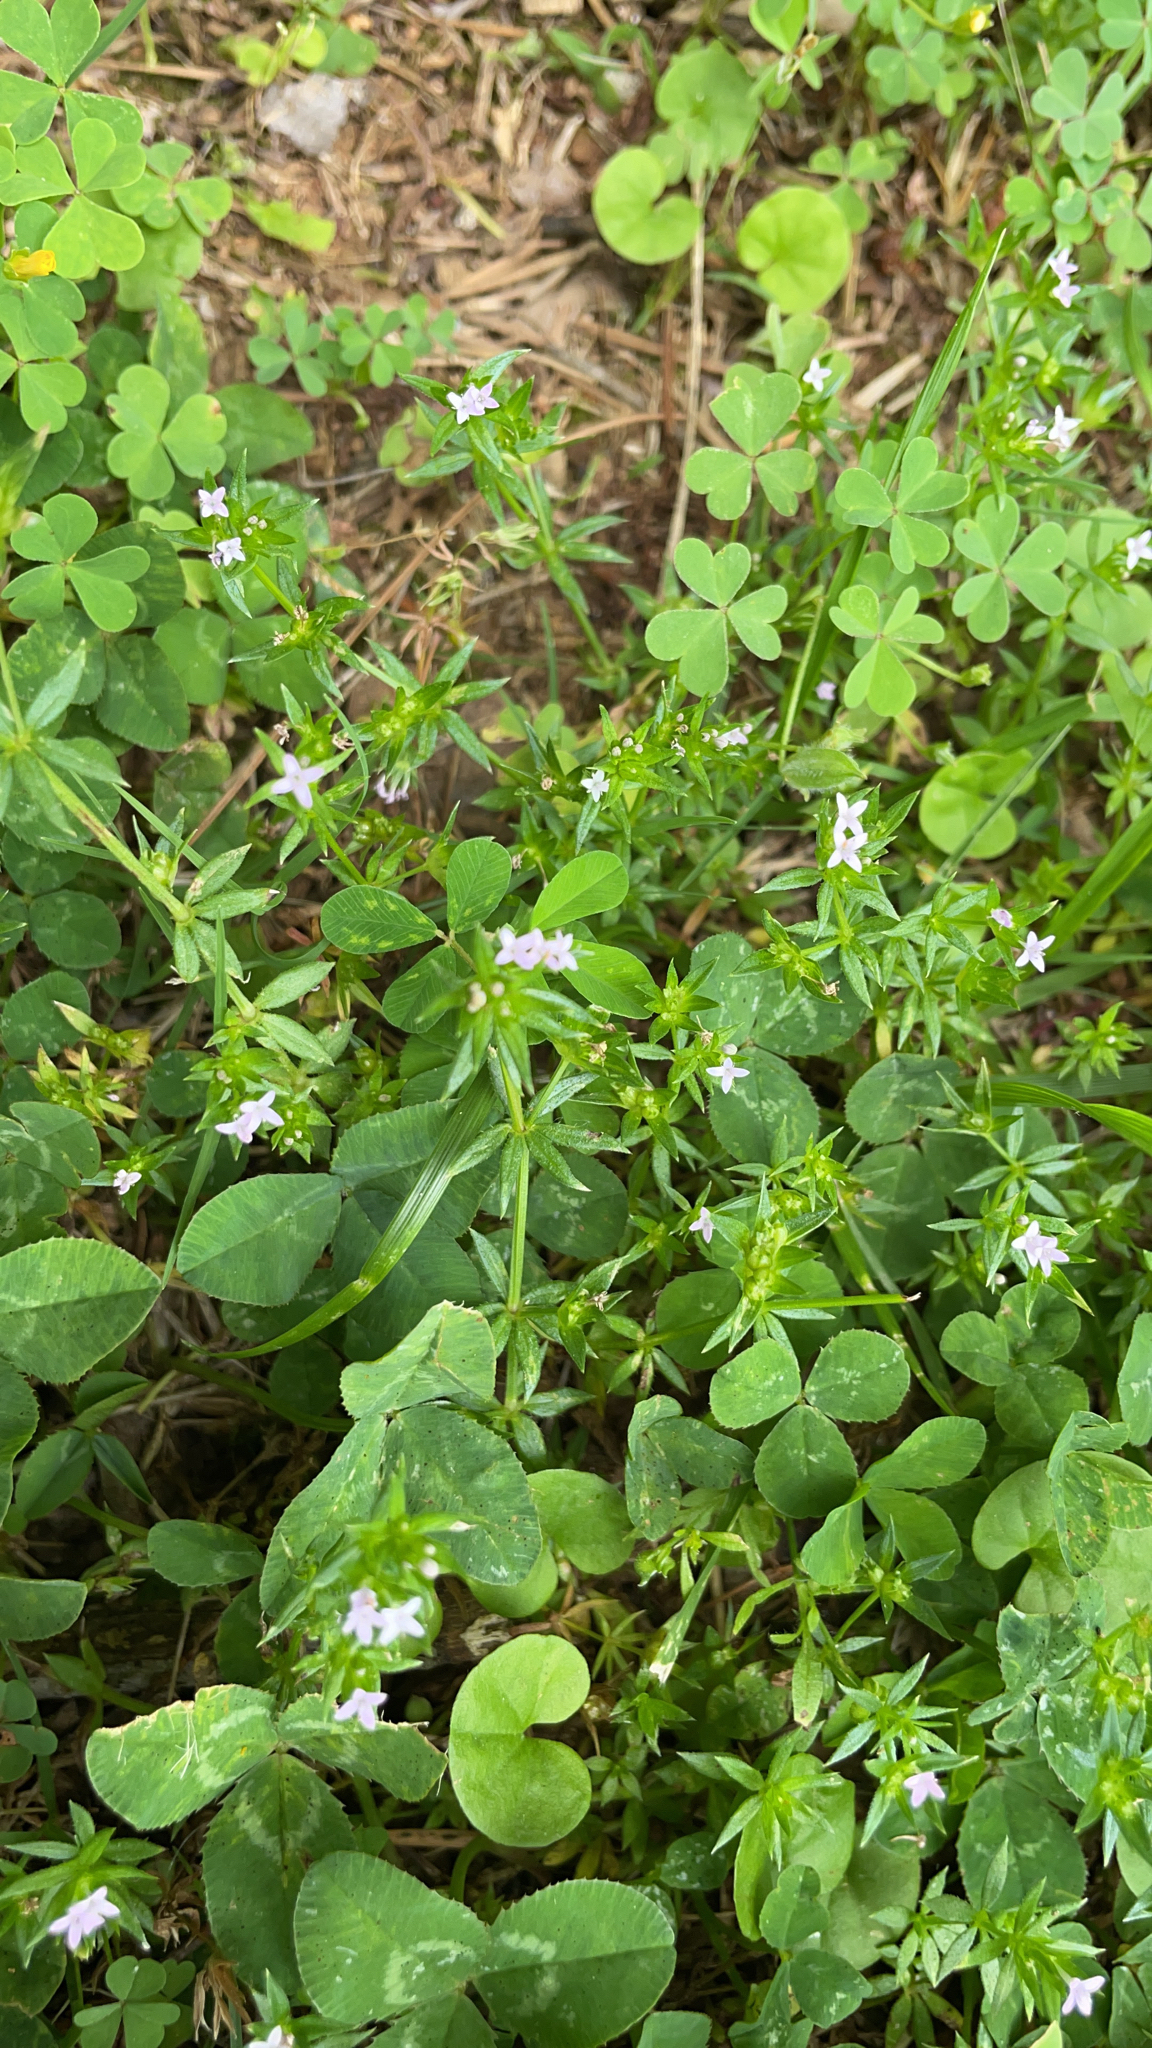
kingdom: Plantae
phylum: Tracheophyta
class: Magnoliopsida
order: Gentianales
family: Rubiaceae
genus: Sherardia
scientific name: Sherardia arvensis
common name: Field madder
